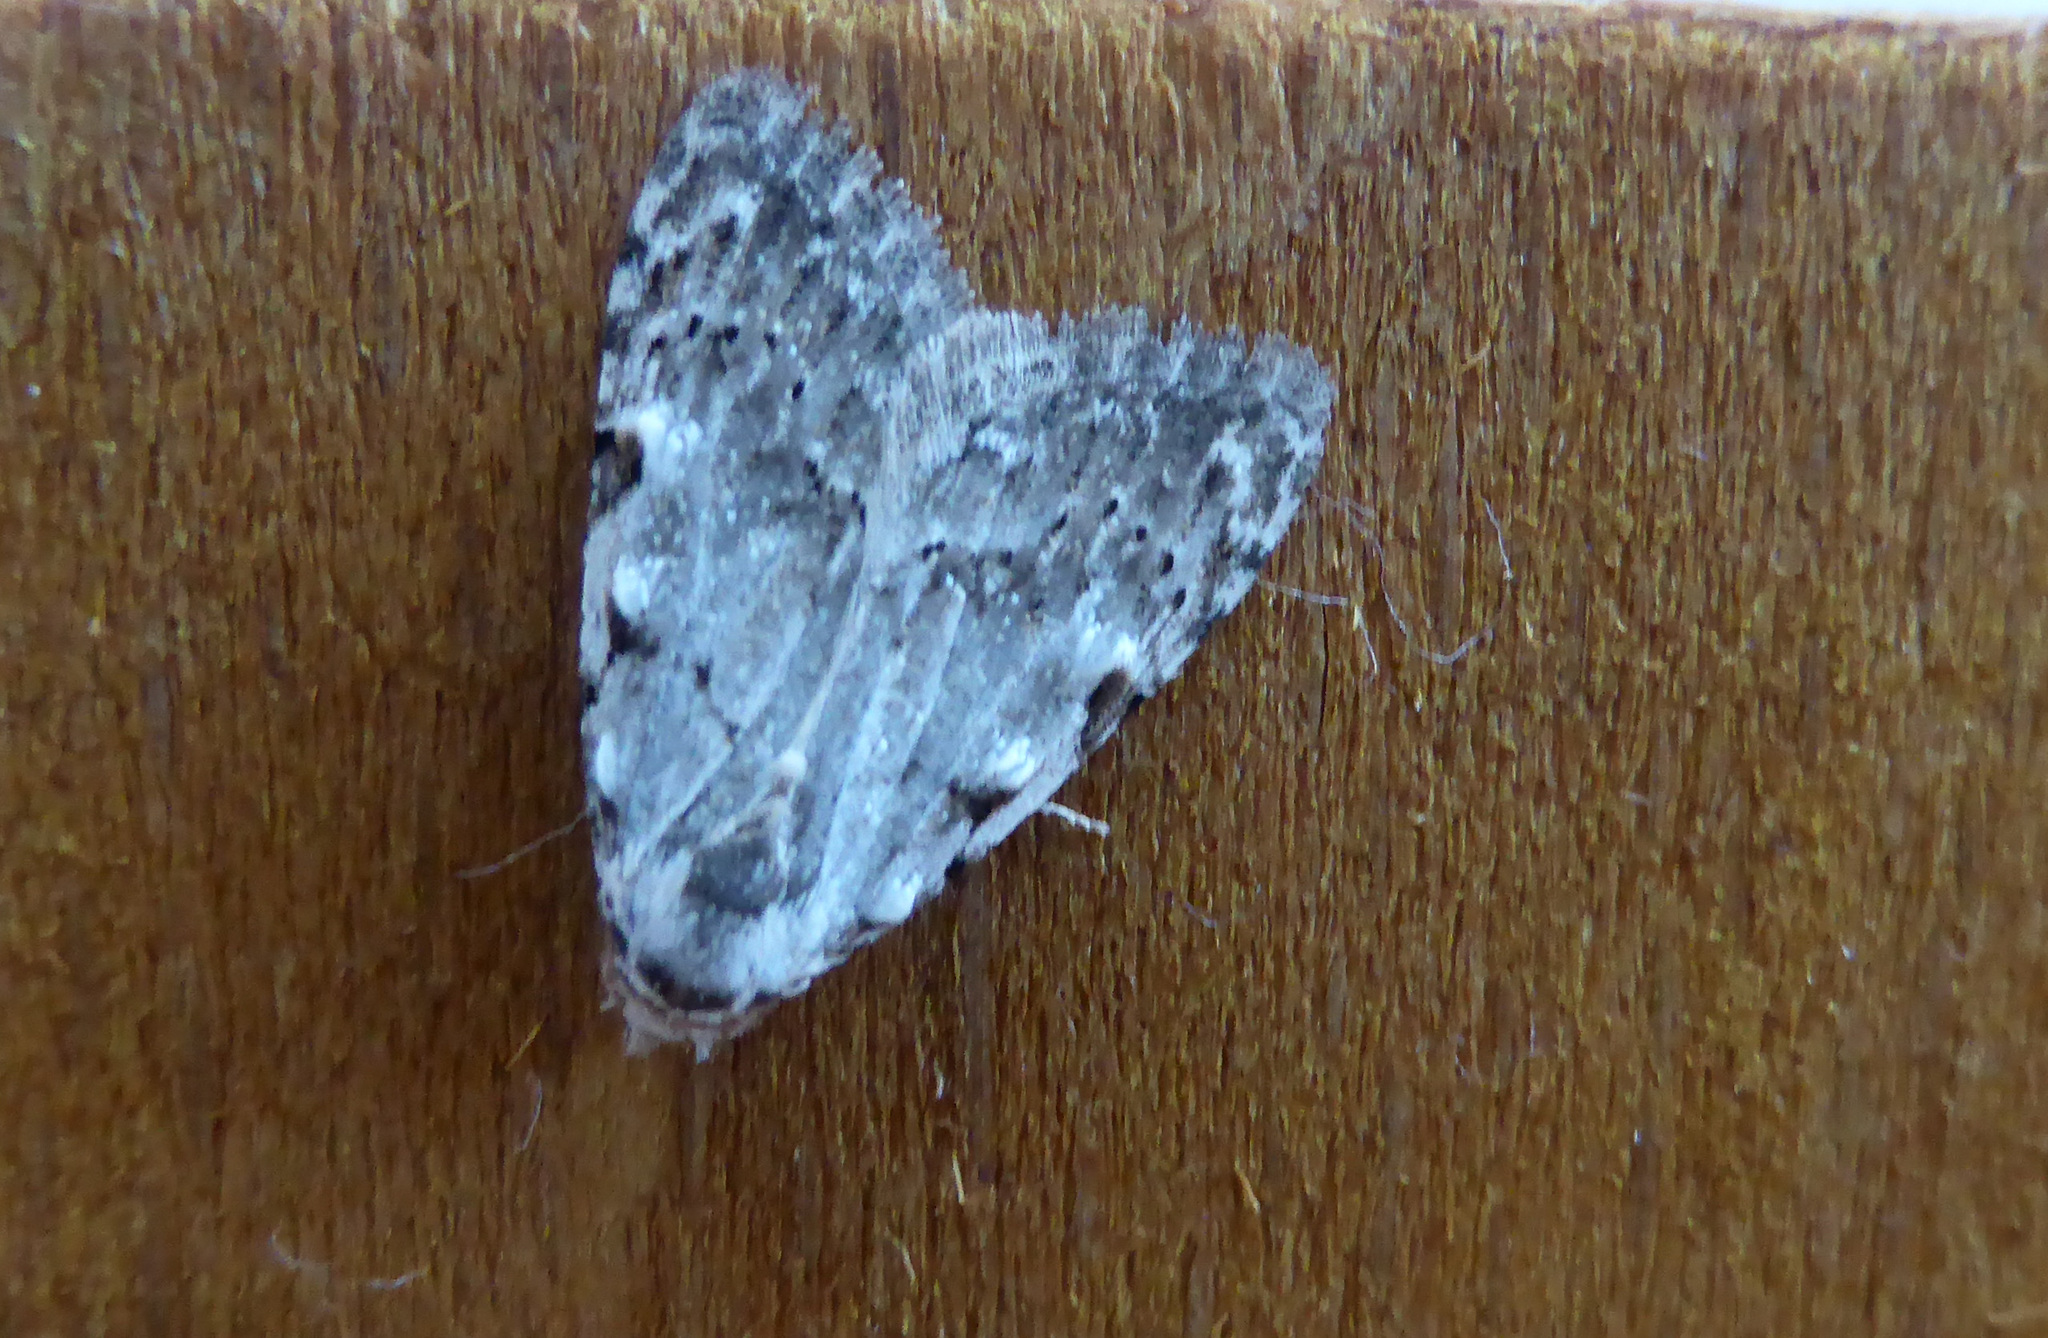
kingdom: Animalia
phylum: Arthropoda
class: Insecta
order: Lepidoptera
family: Nolidae
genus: Nola
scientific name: Nola confusalis
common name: Least black arches
